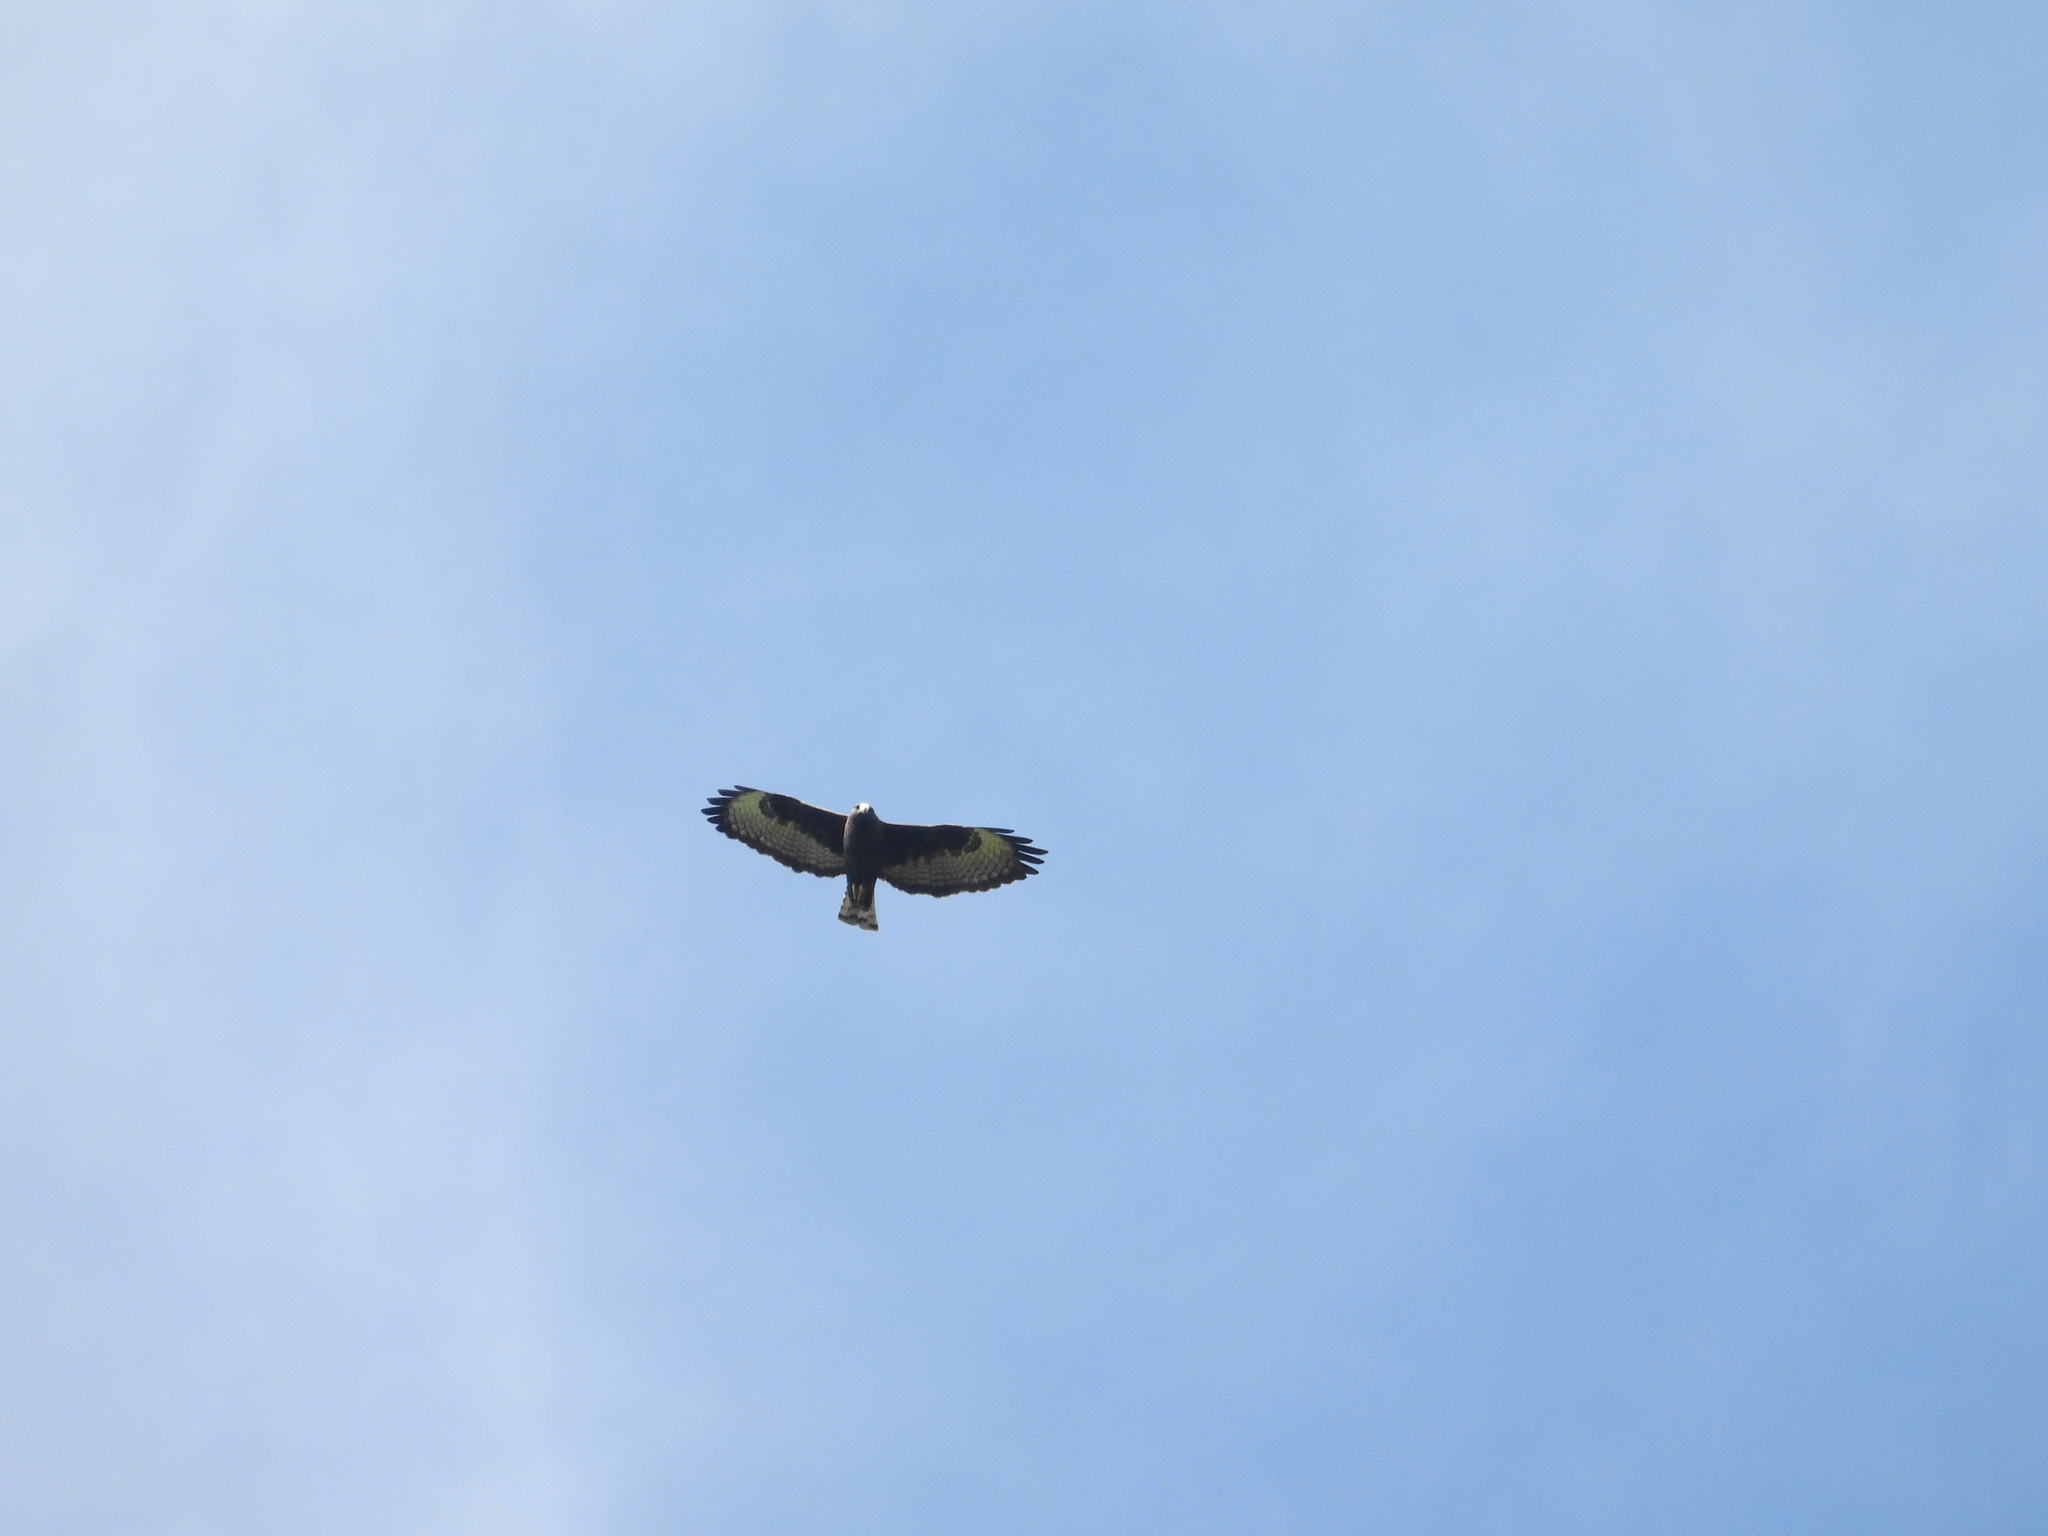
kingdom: Animalia
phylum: Chordata
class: Aves
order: Accipitriformes
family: Accipitridae
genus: Buteo
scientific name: Buteo brachyurus
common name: Short-tailed hawk
